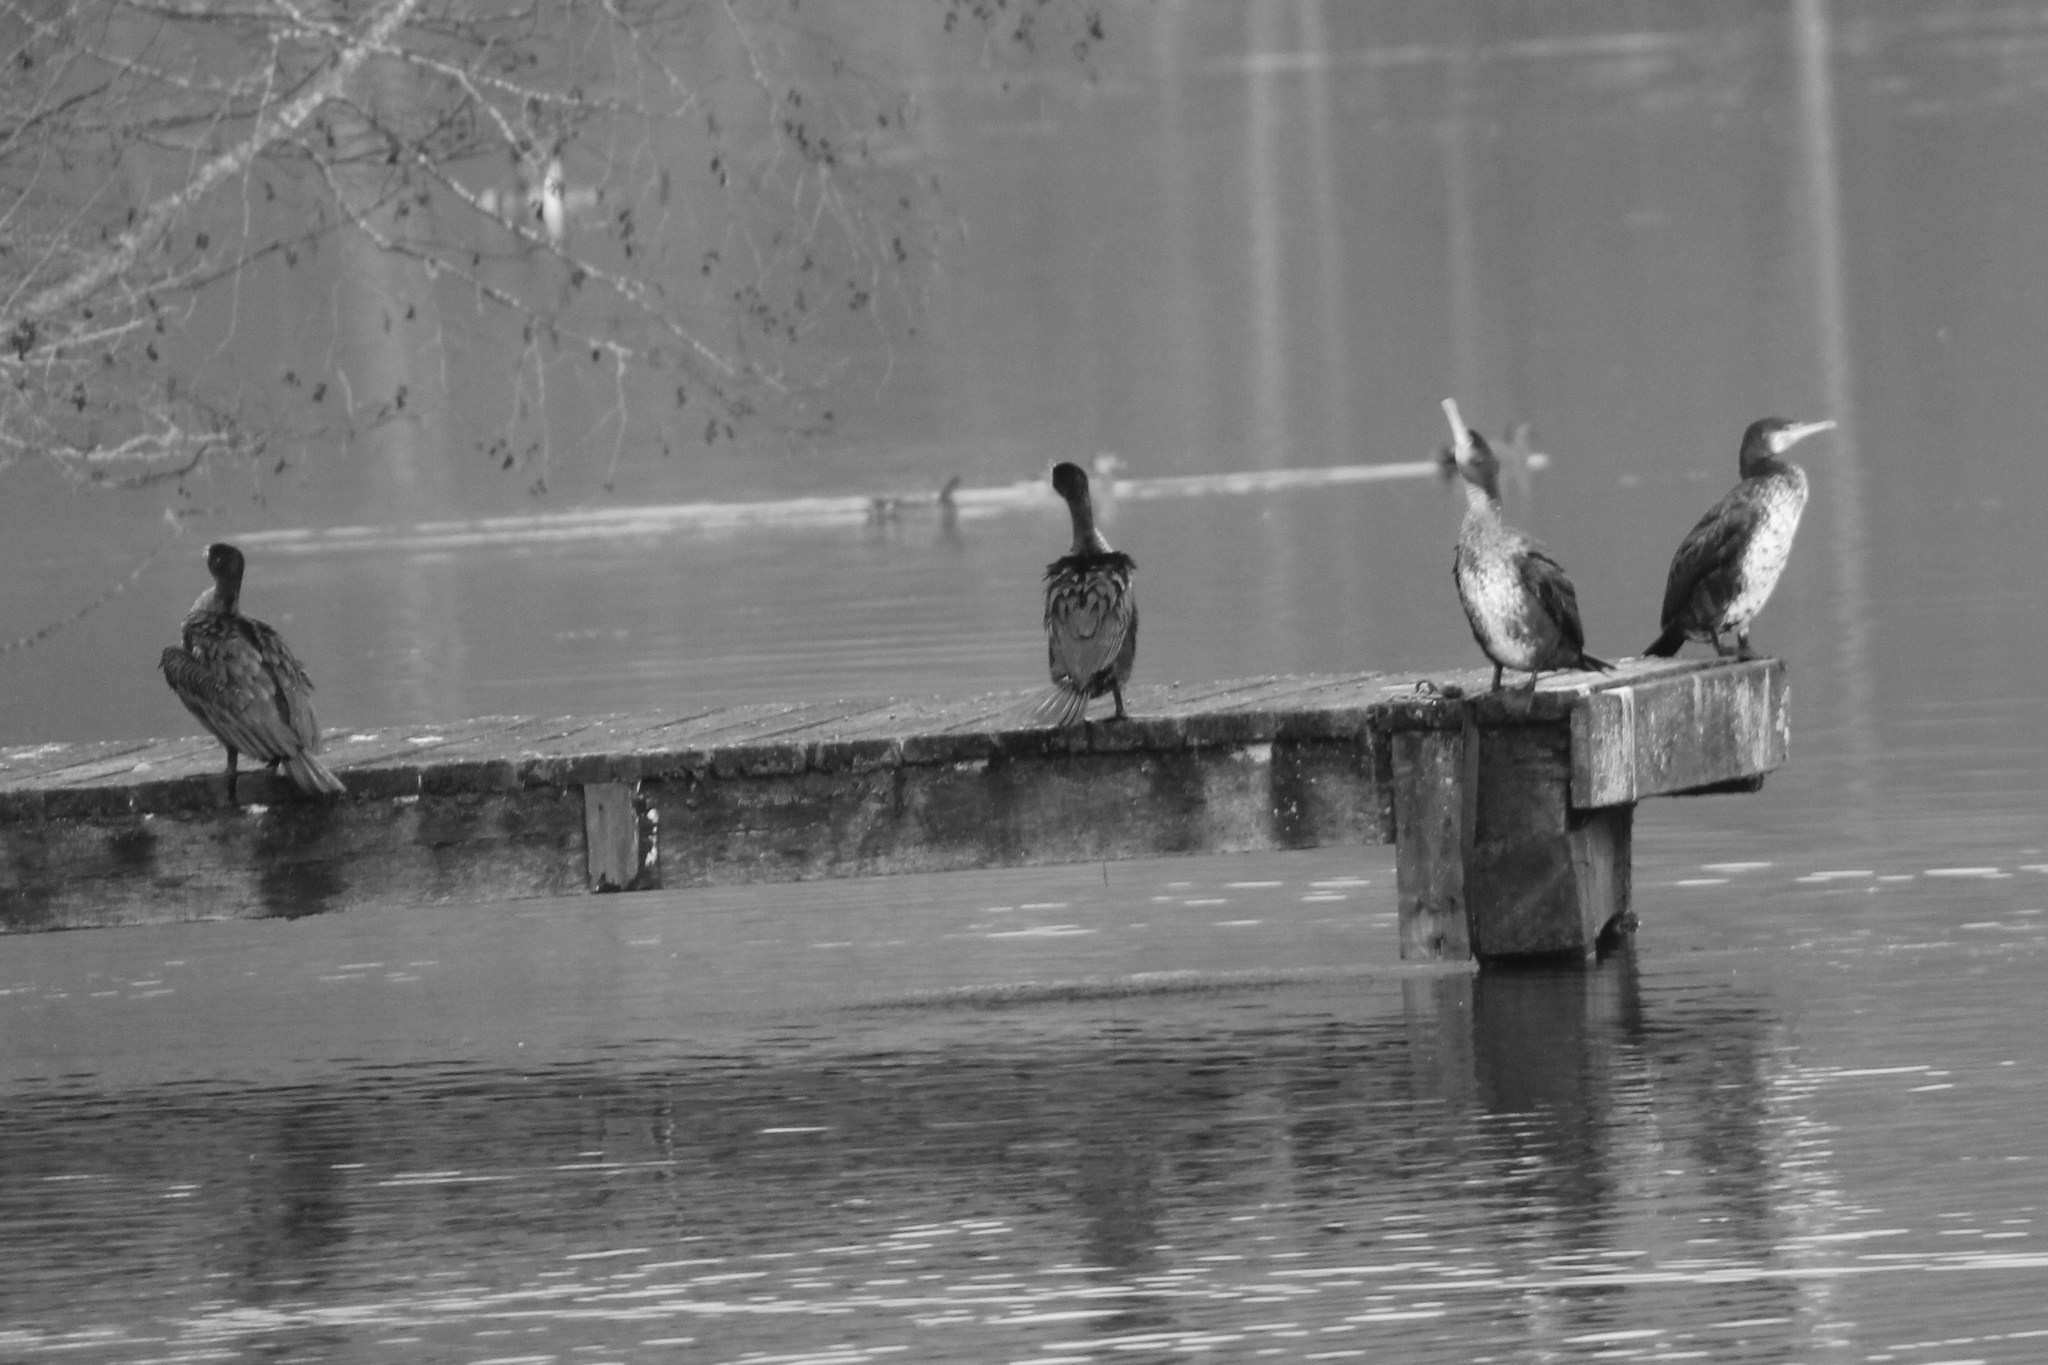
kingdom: Animalia
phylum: Chordata
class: Aves
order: Suliformes
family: Phalacrocoracidae
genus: Phalacrocorax
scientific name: Phalacrocorax carbo
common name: Great cormorant
